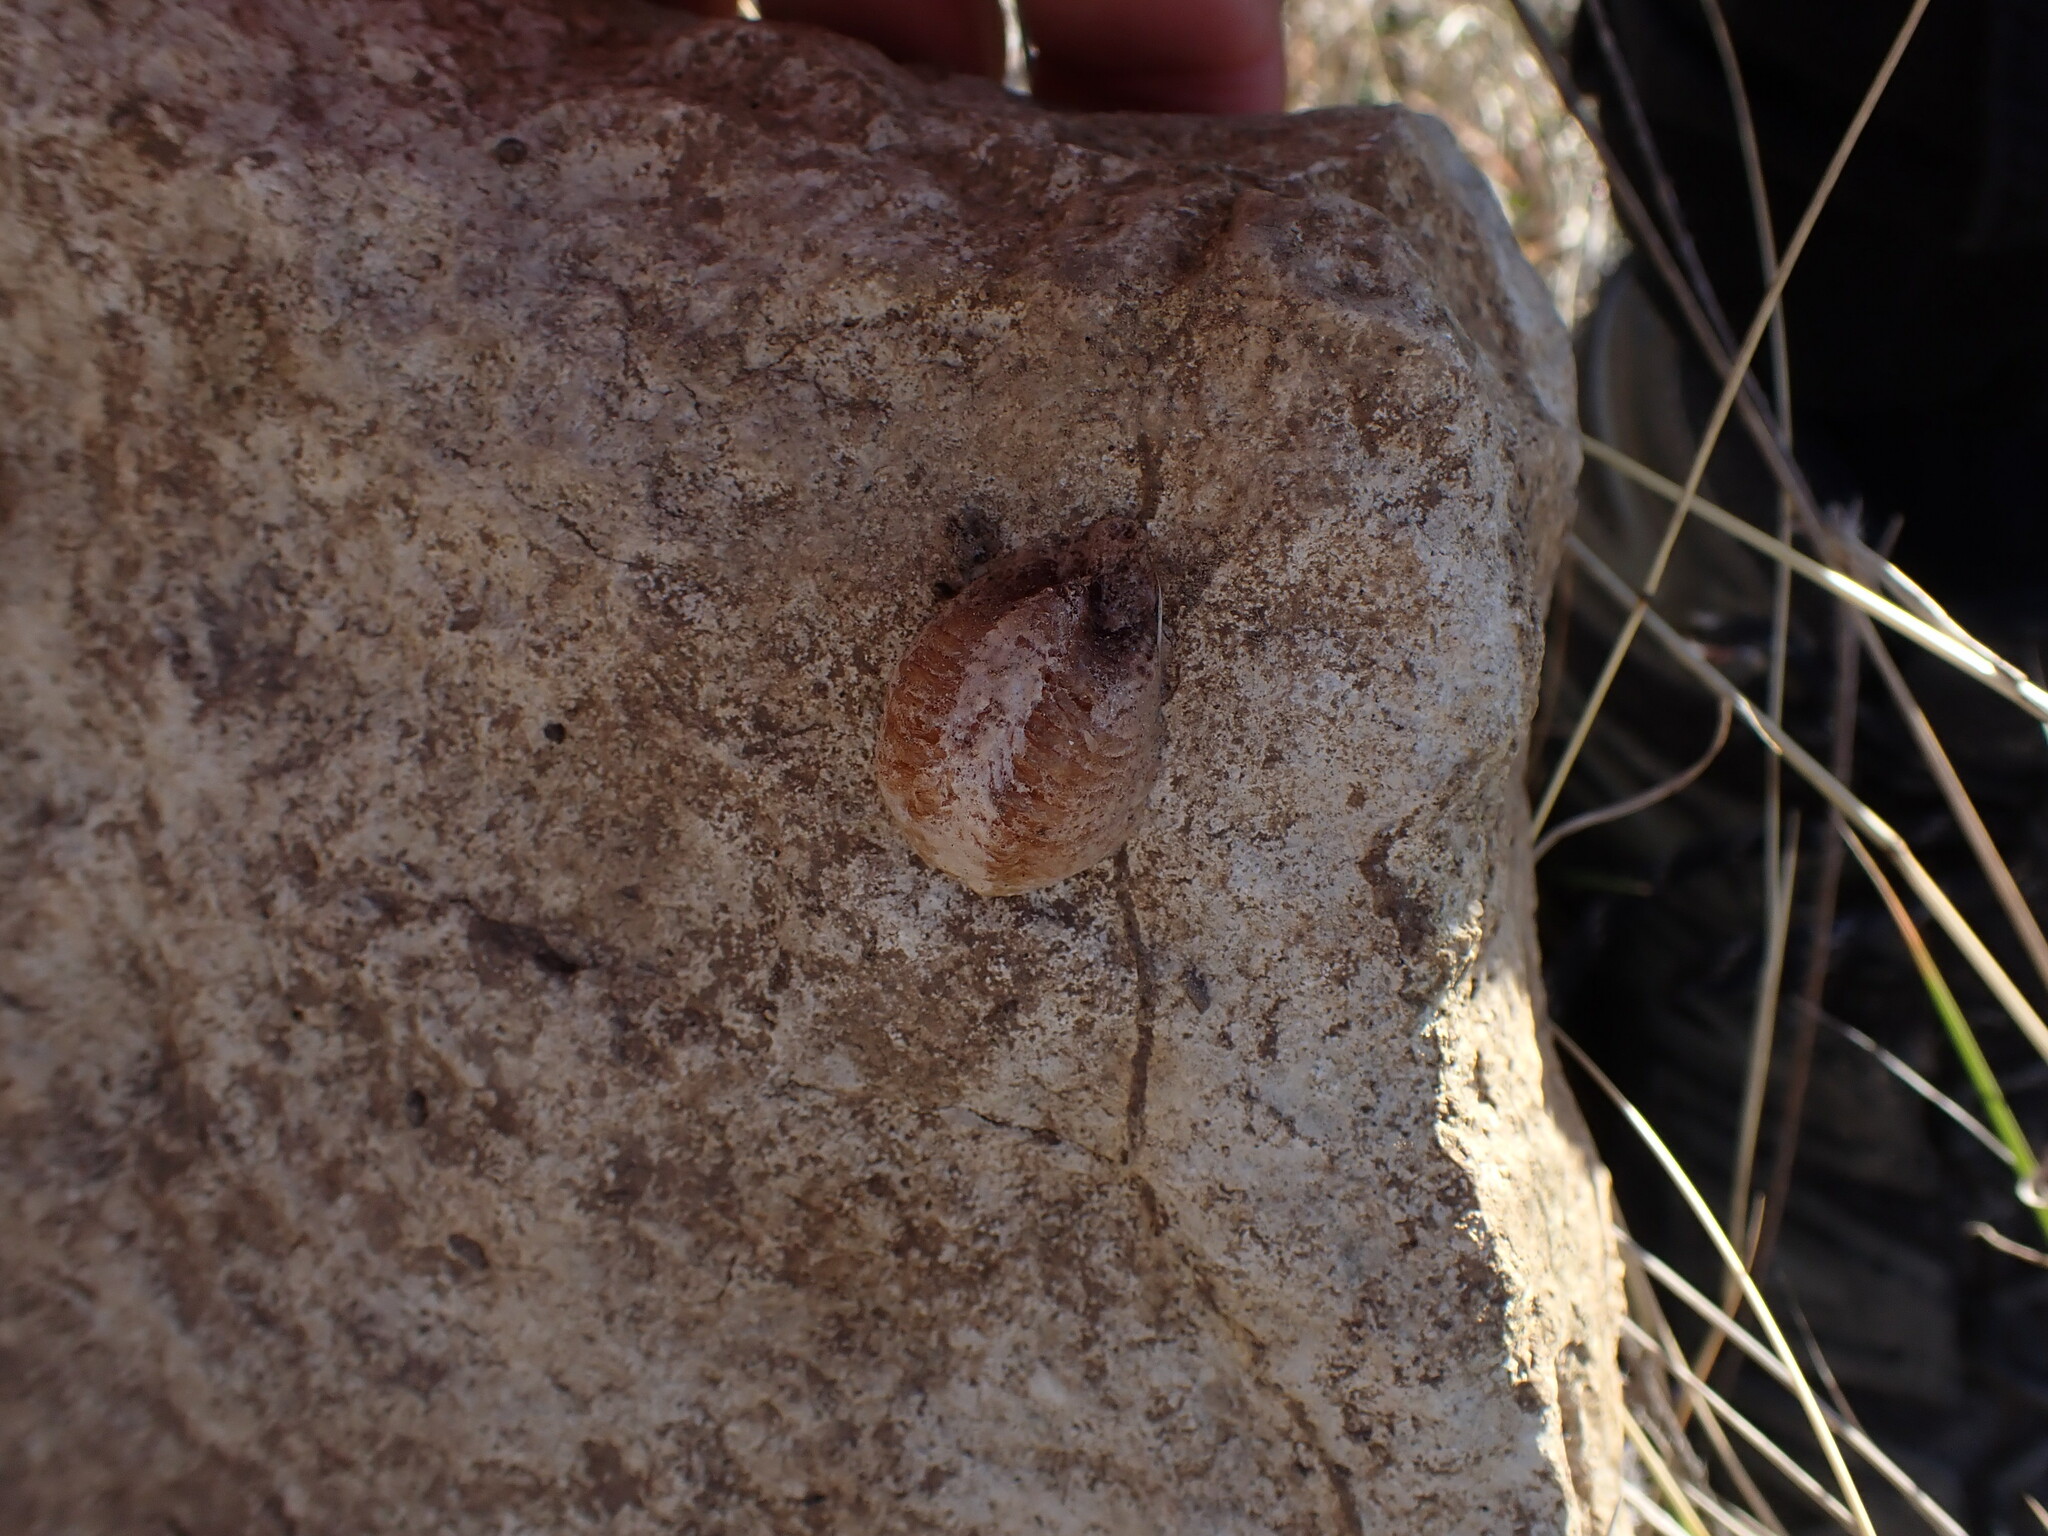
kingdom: Animalia
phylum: Arthropoda
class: Insecta
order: Mantodea
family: Mantidae
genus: Mantis
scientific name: Mantis religiosa
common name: Praying mantis
